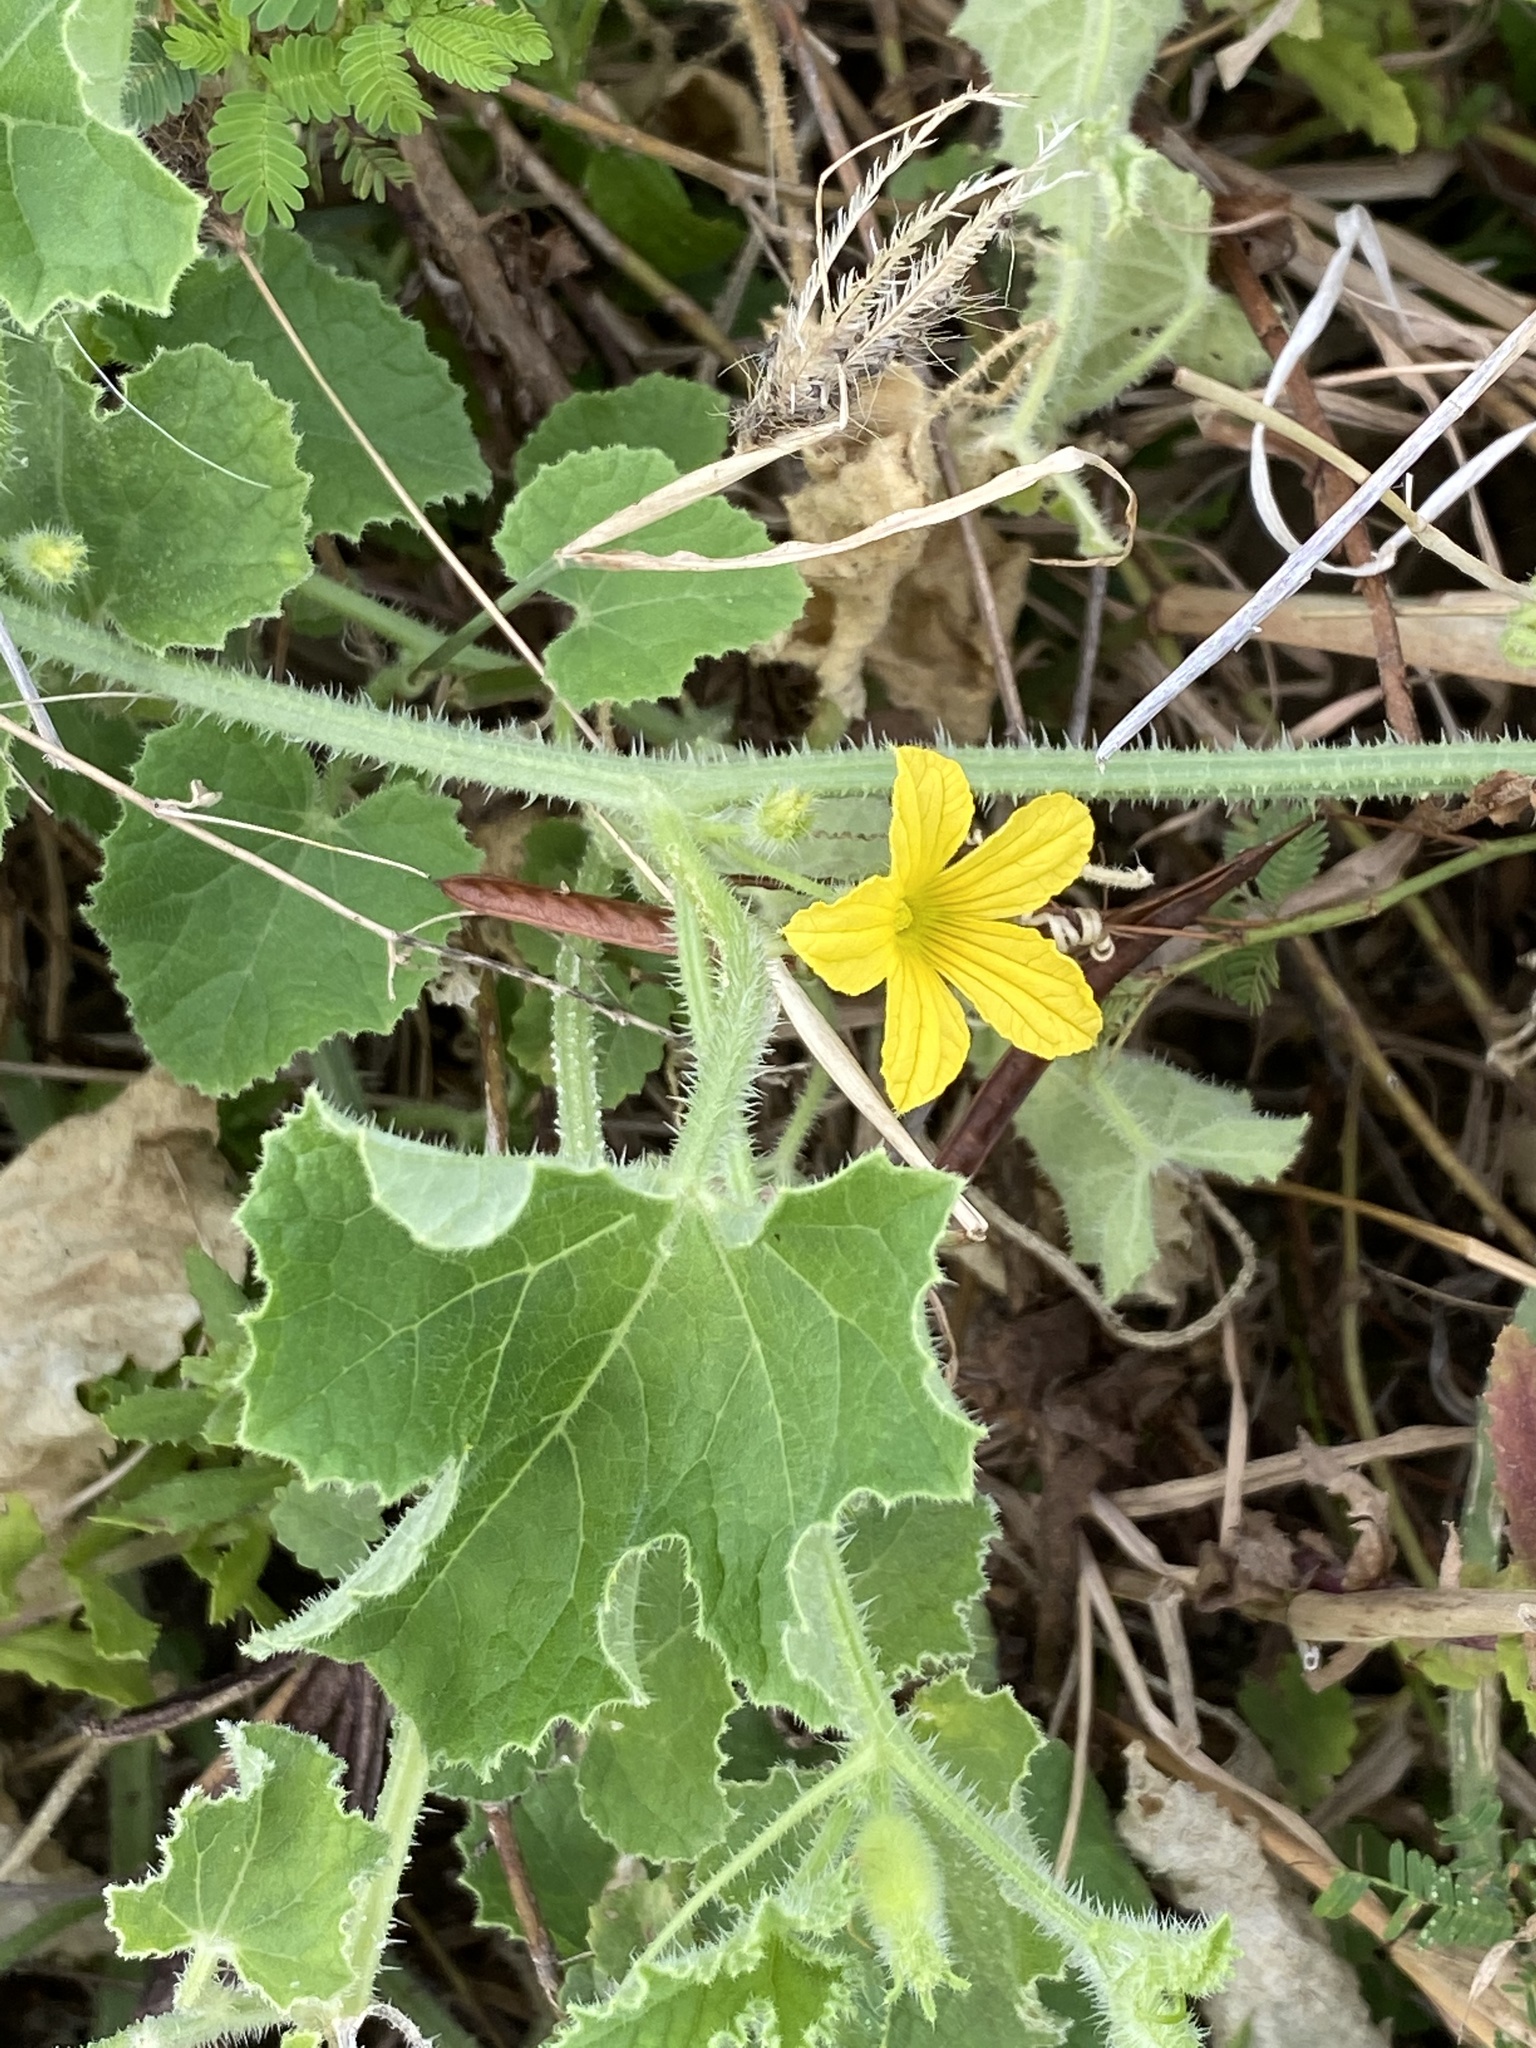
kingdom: Plantae
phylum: Tracheophyta
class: Magnoliopsida
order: Cucurbitales
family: Cucurbitaceae
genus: Cucumis
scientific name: Cucumis melo
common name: Melon
